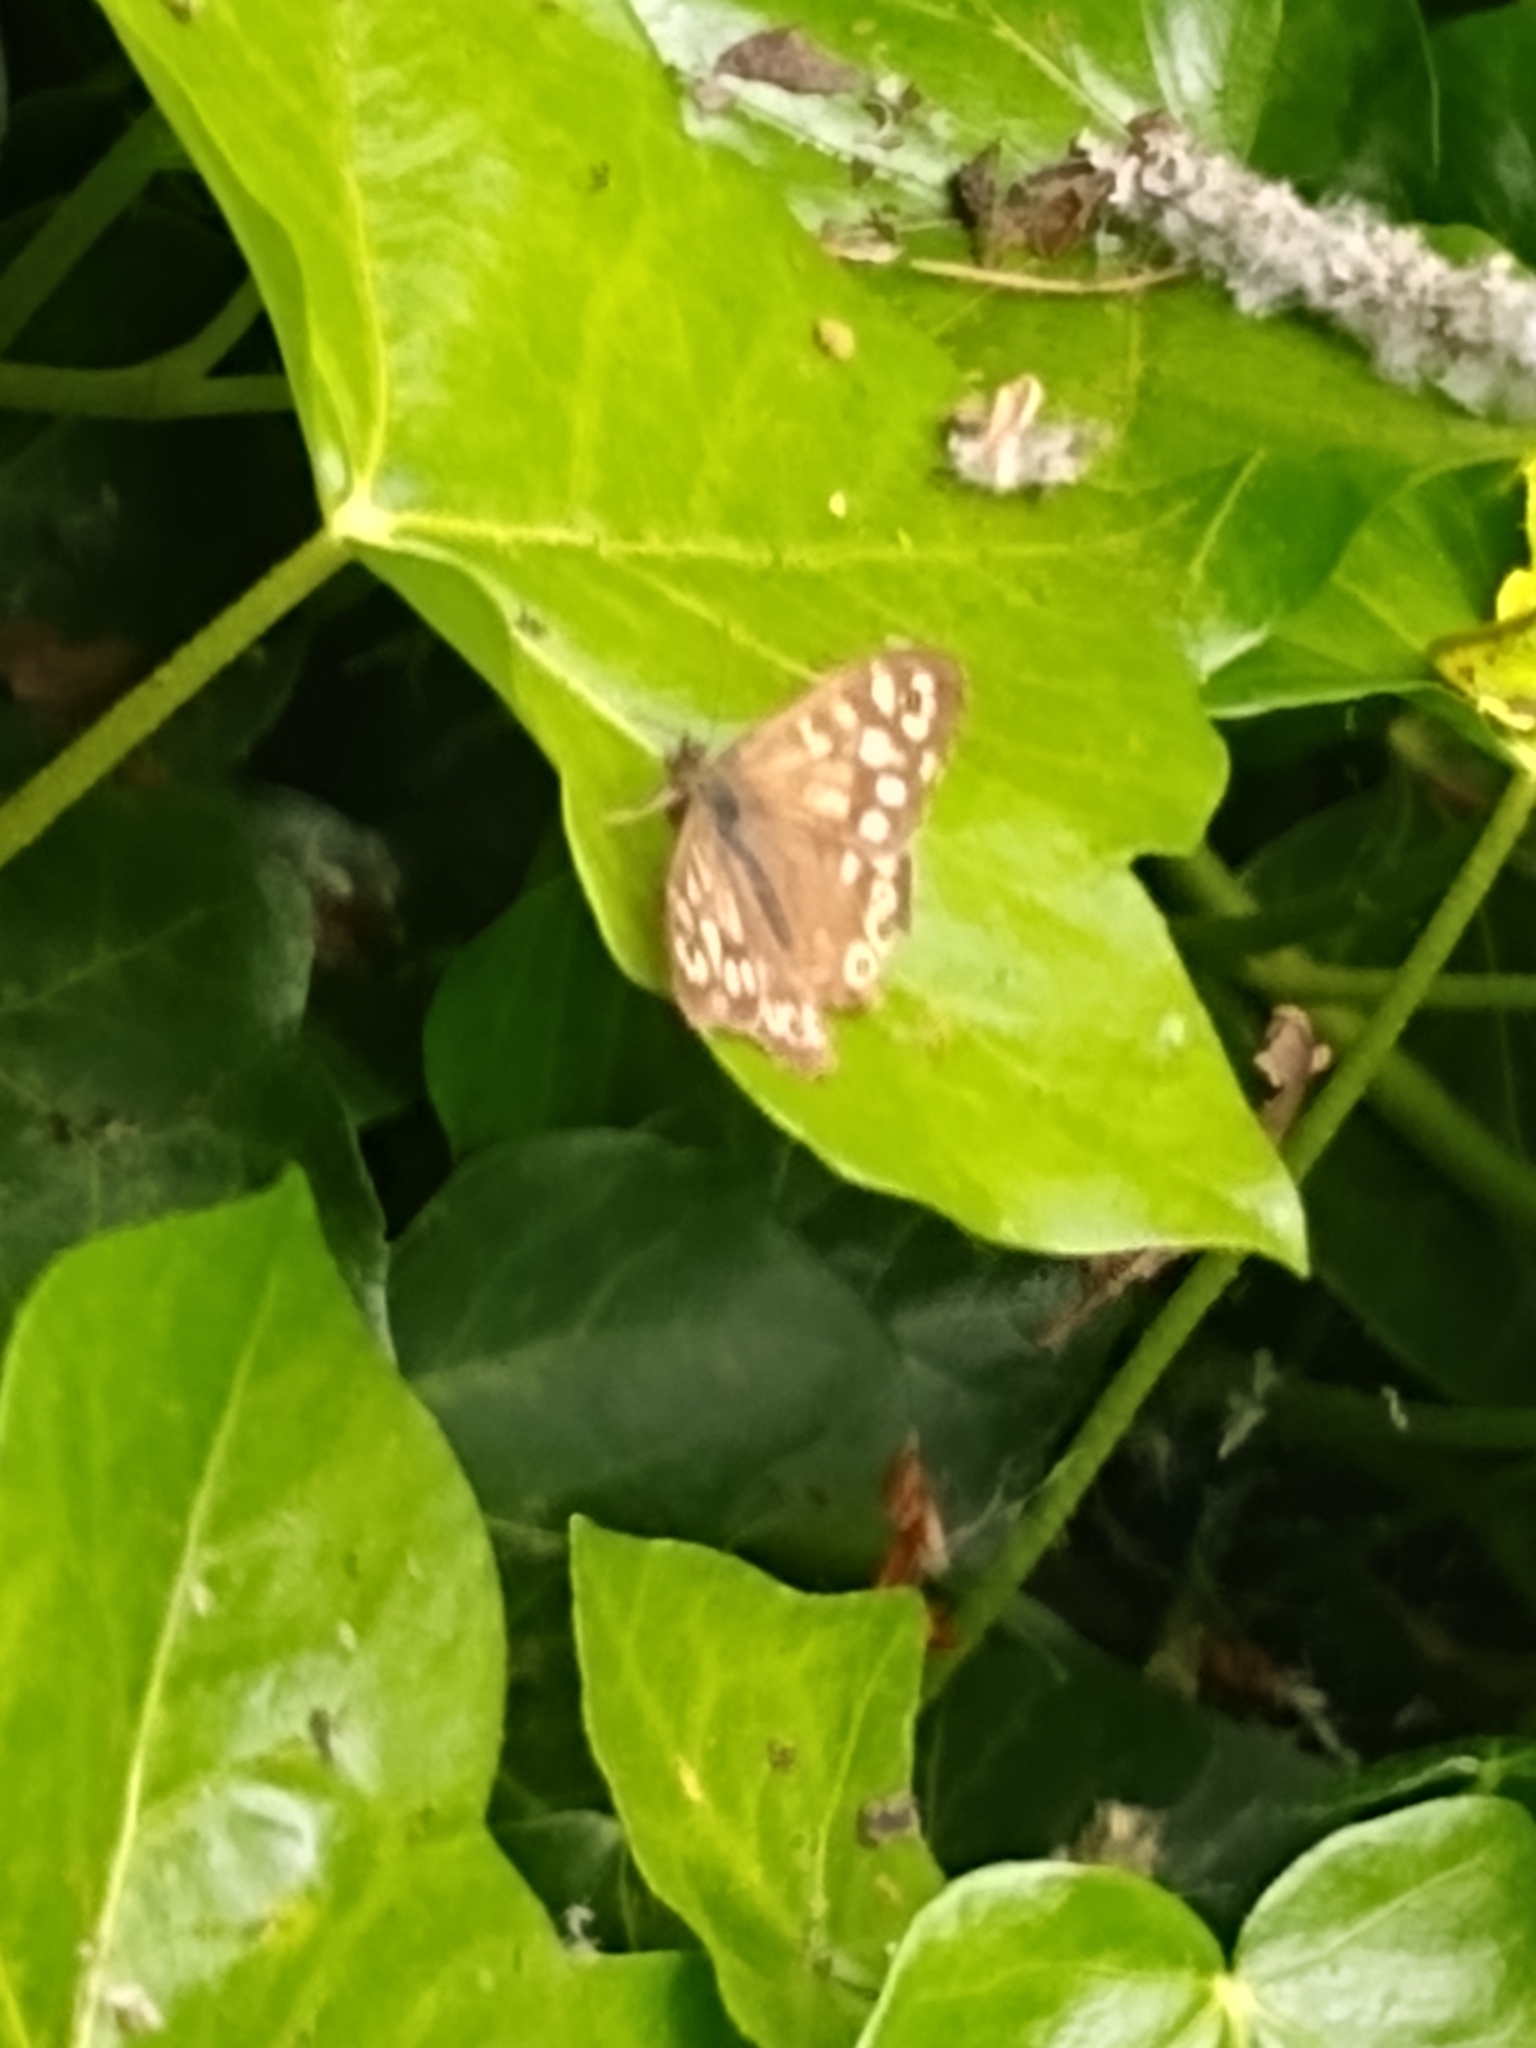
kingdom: Animalia
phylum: Arthropoda
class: Insecta
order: Lepidoptera
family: Nymphalidae
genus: Pararge
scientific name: Pararge aegeria
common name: Speckled wood
